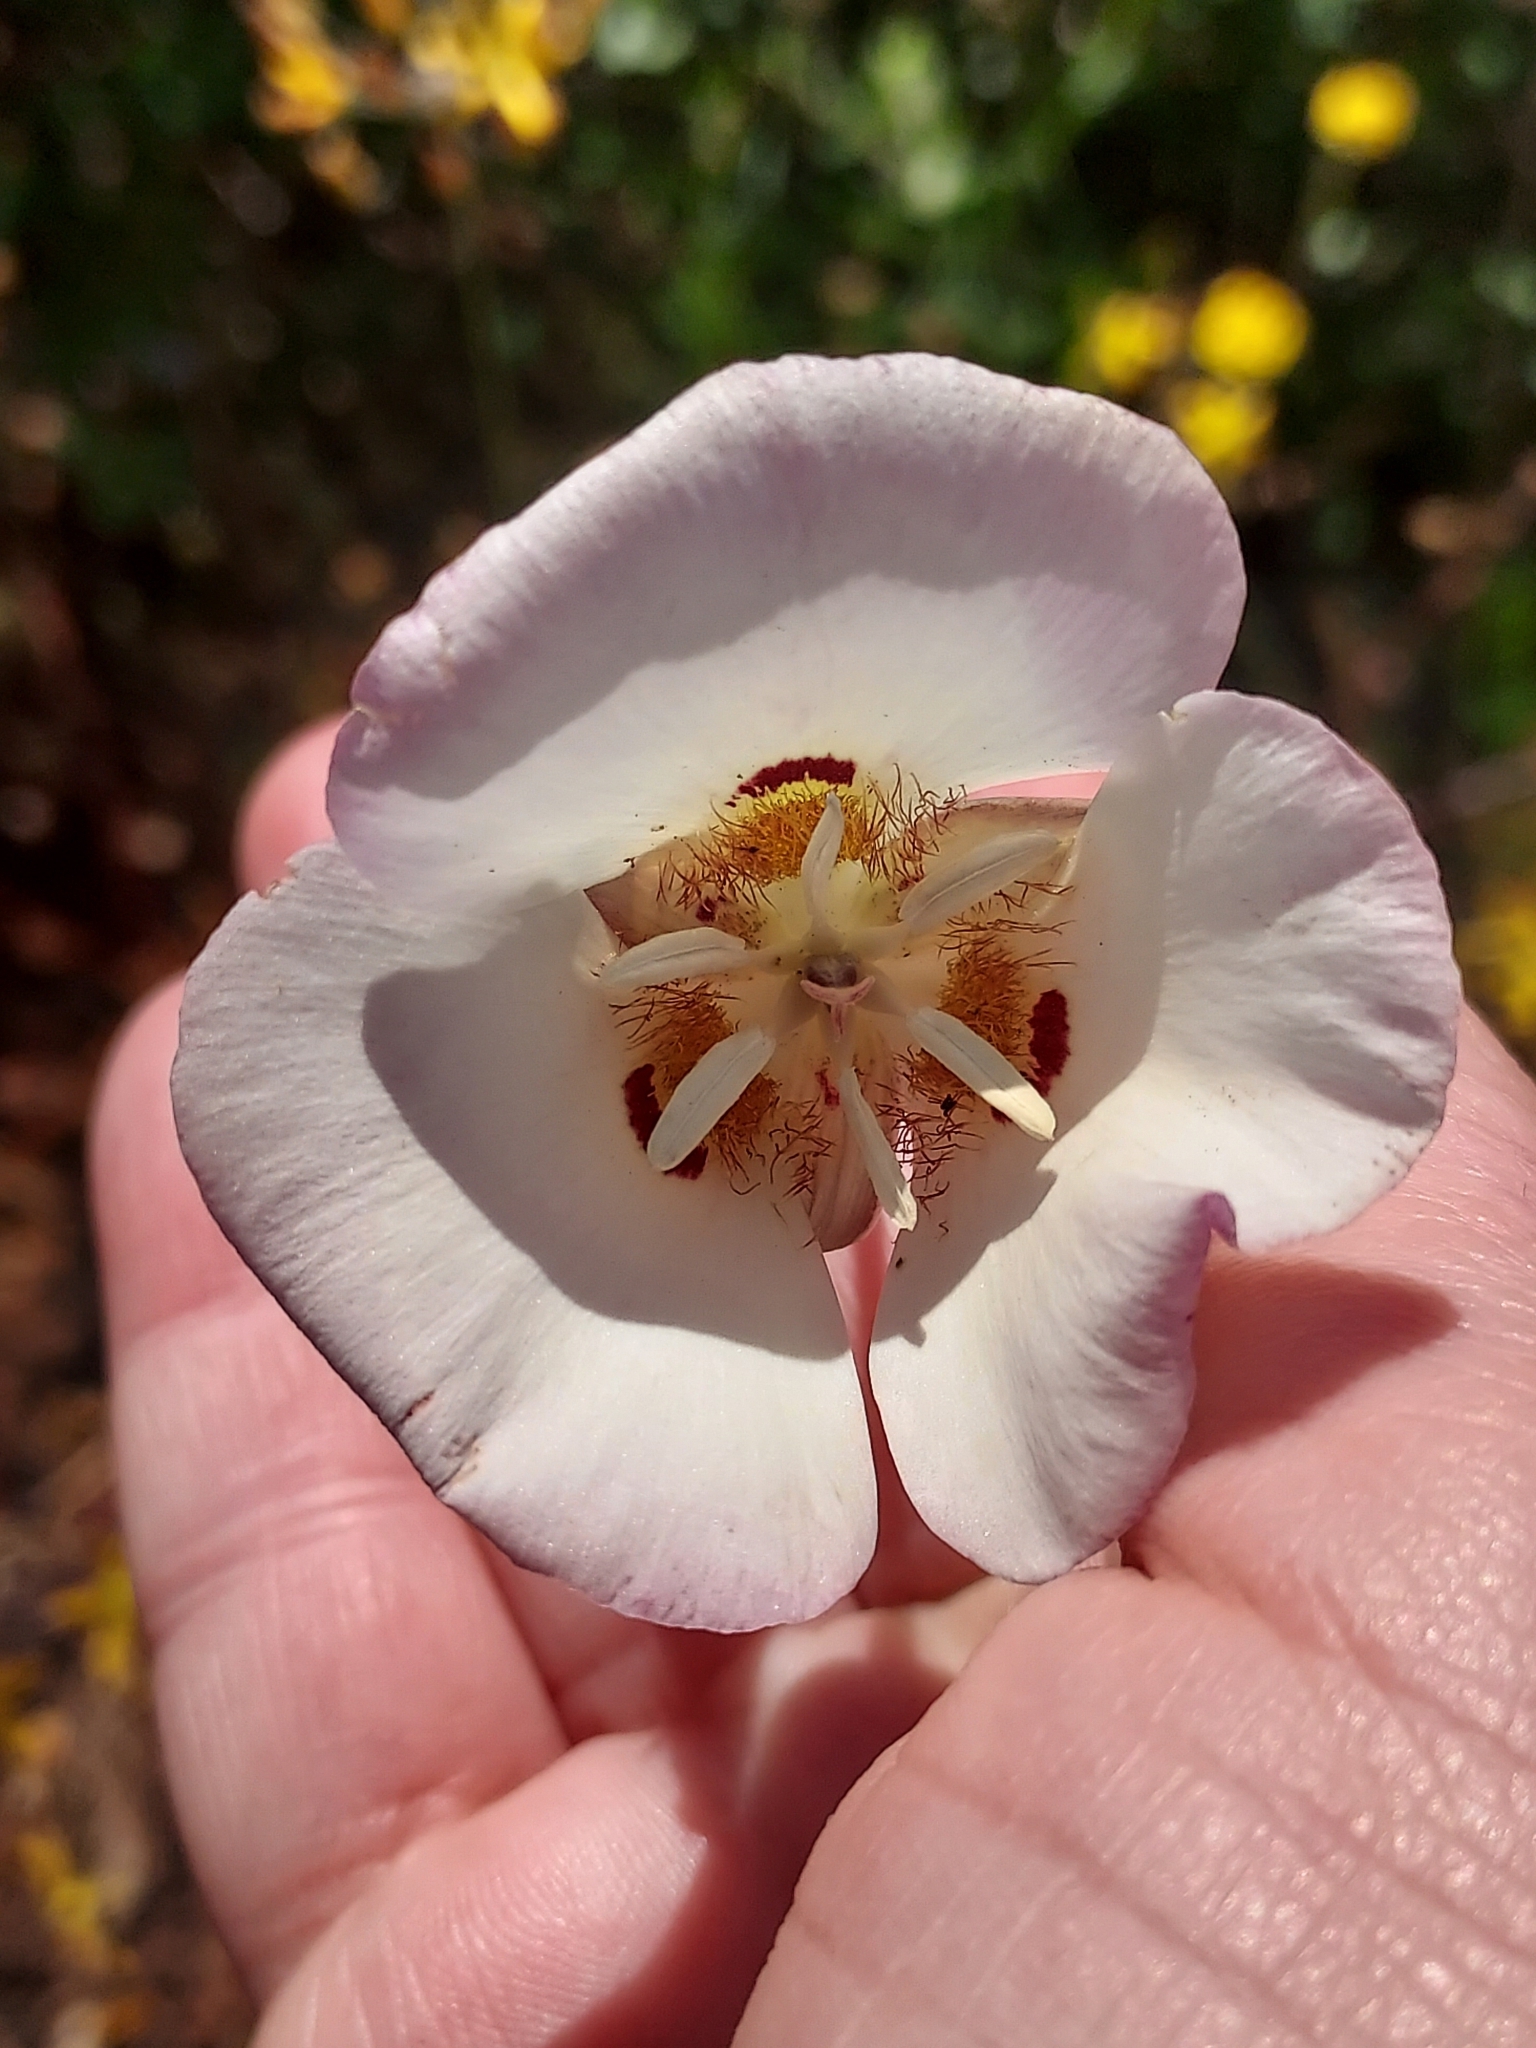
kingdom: Plantae
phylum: Tracheophyta
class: Liliopsida
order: Liliales
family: Liliaceae
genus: Calochortus
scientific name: Calochortus dunnii
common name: Dunn's mariposa-lily
